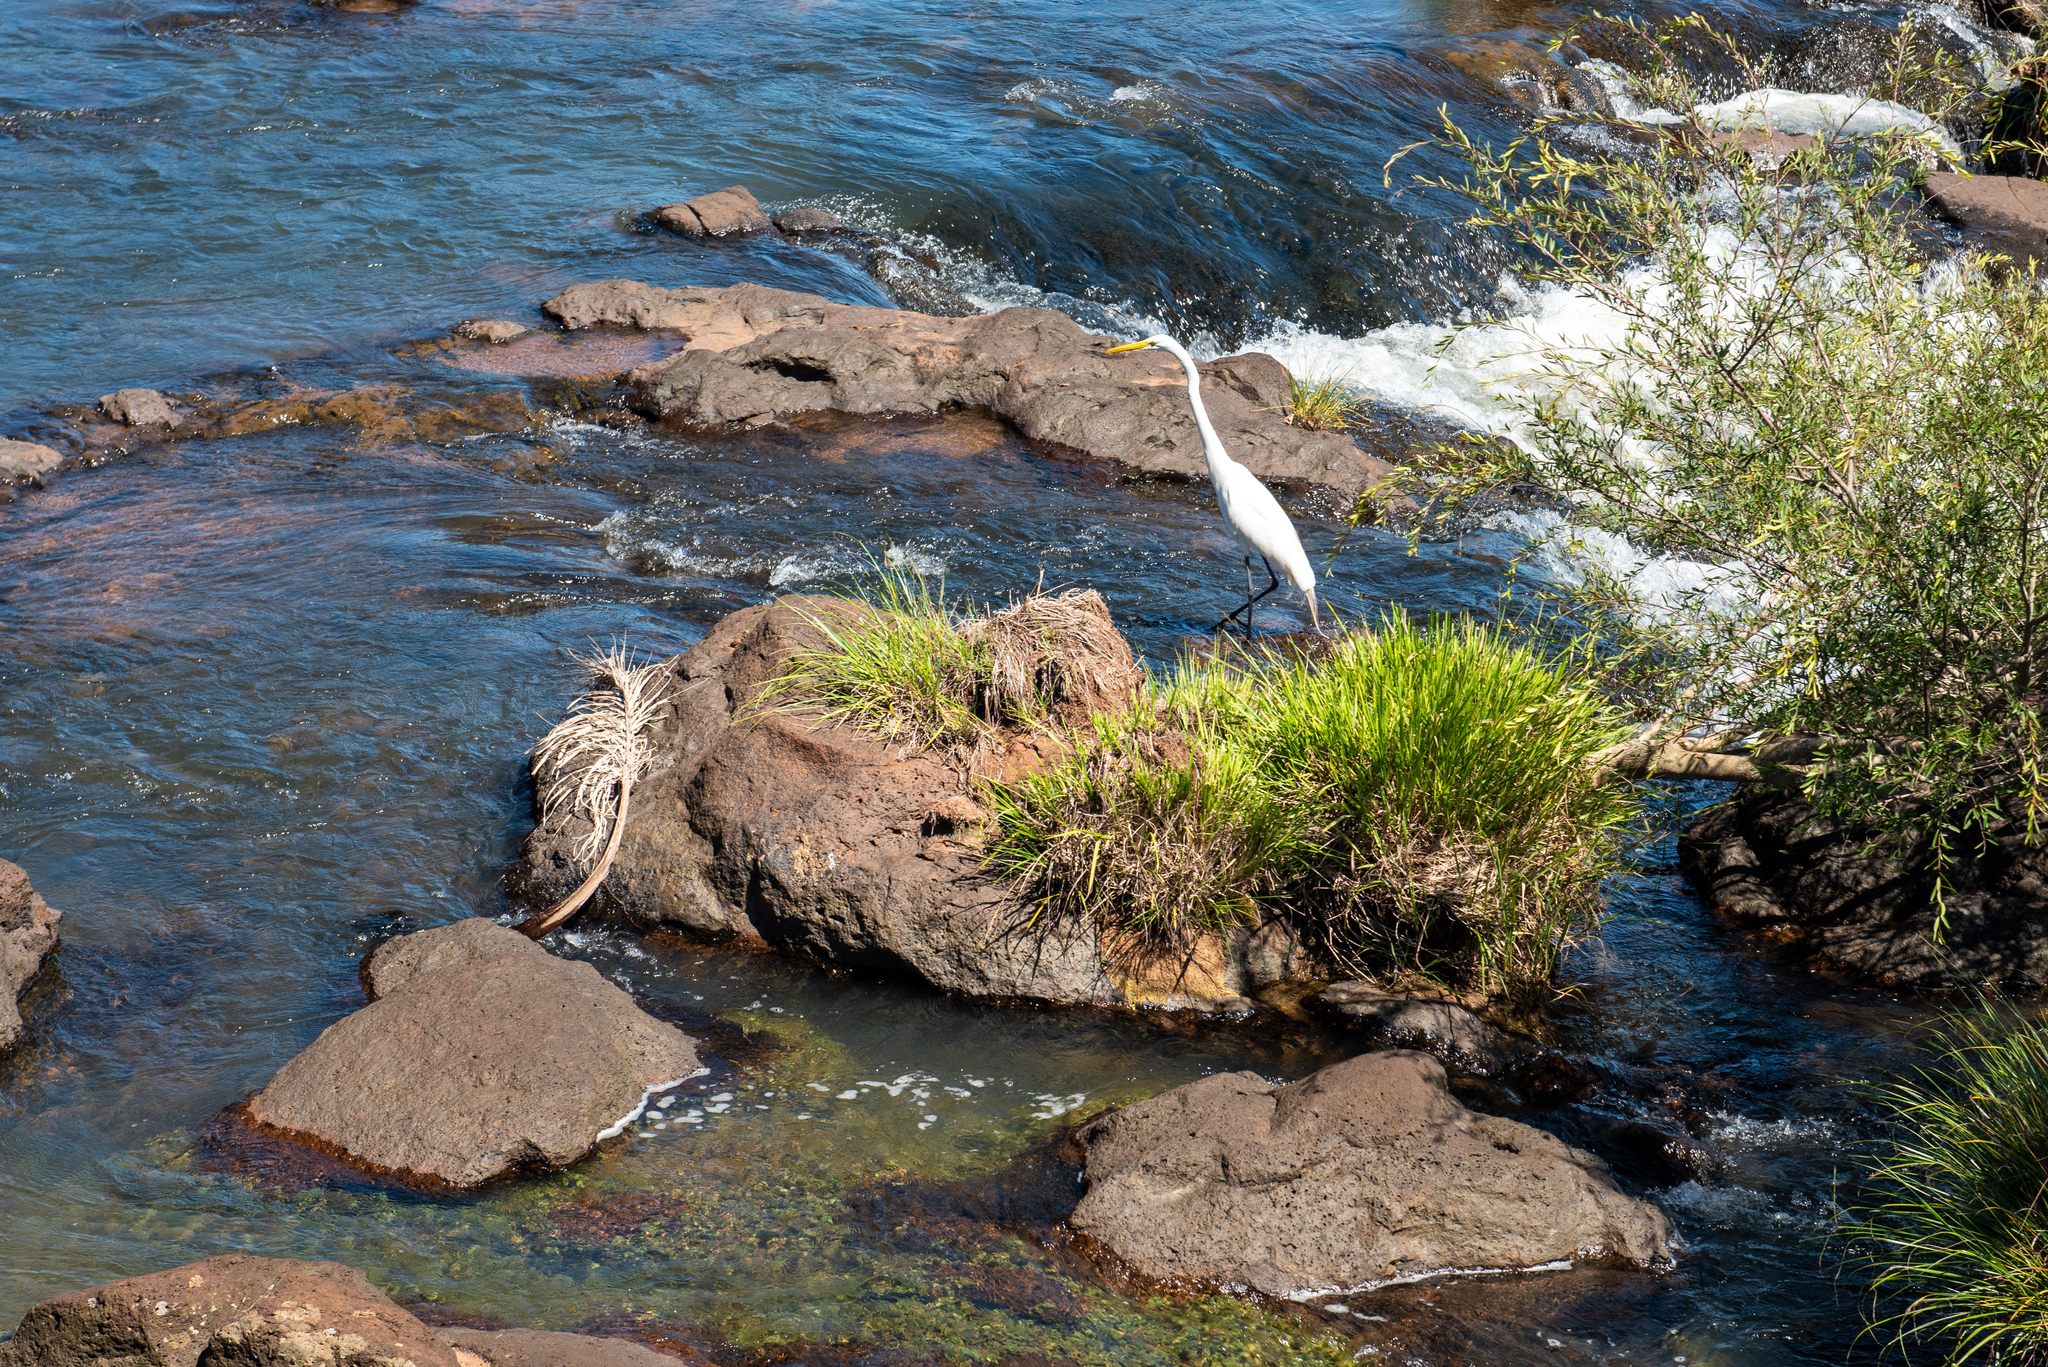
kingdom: Animalia
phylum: Chordata
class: Aves
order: Pelecaniformes
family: Ardeidae
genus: Ardea
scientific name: Ardea alba
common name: Great egret
